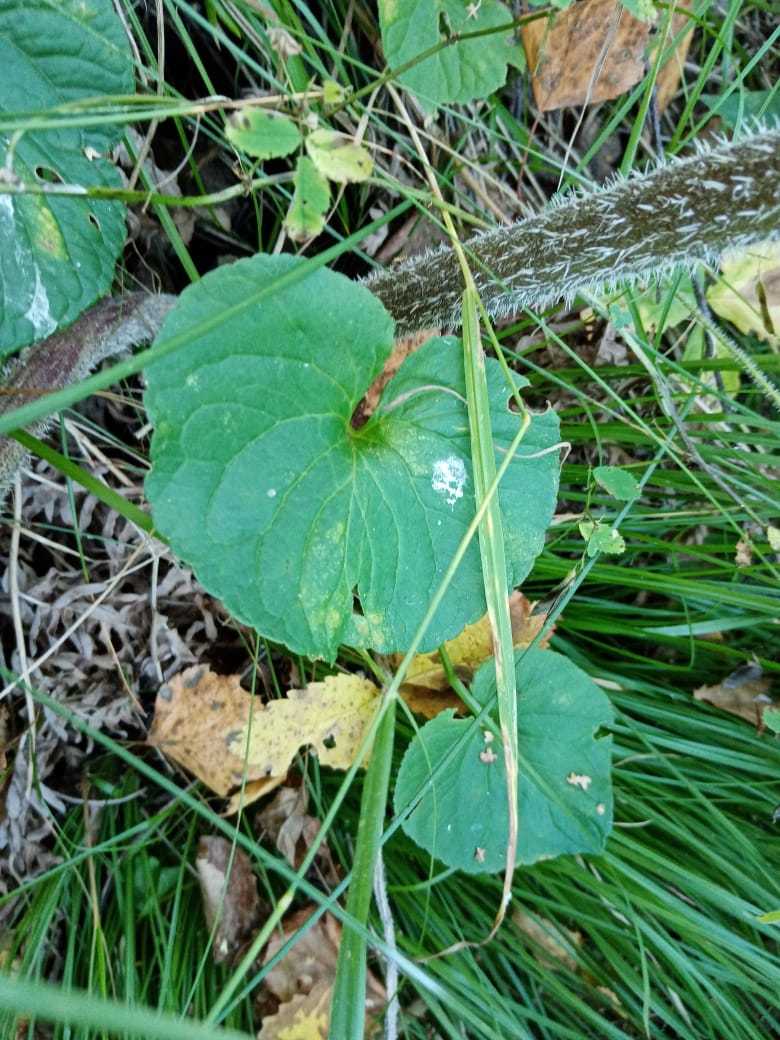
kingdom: Plantae
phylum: Tracheophyta
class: Magnoliopsida
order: Malpighiales
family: Violaceae
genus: Viola
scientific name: Viola mirabilis
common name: Wonder violet
